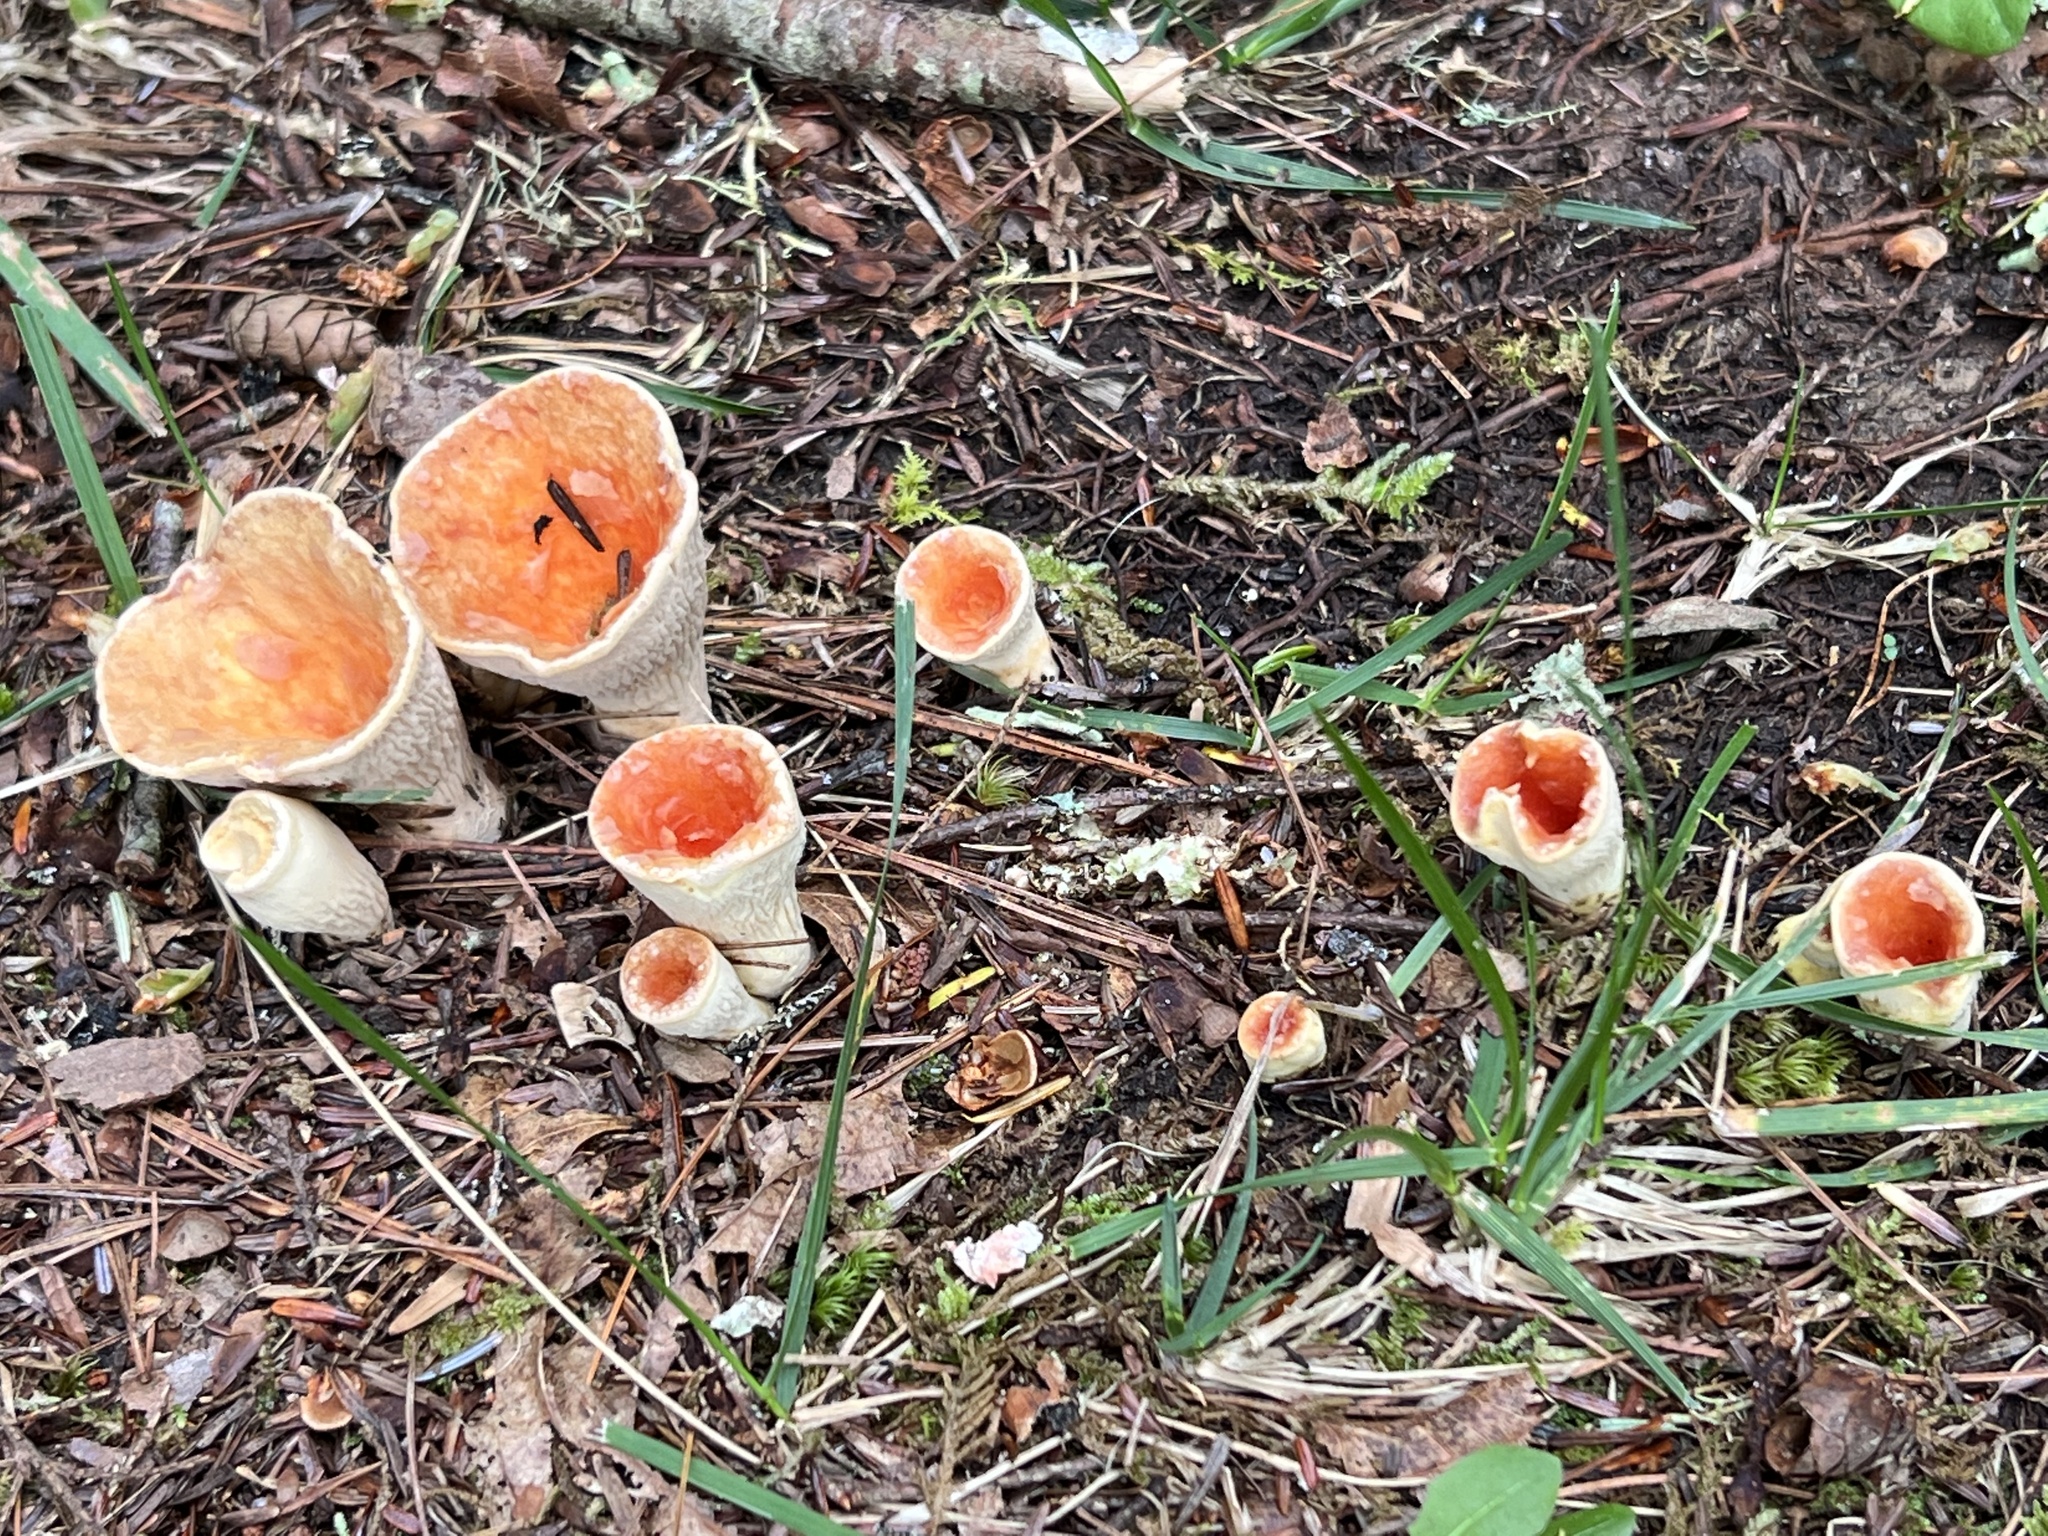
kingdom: Fungi
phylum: Basidiomycota
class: Agaricomycetes
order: Gomphales
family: Gomphaceae
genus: Turbinellus
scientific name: Turbinellus floccosus
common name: Scaly chanterelle
